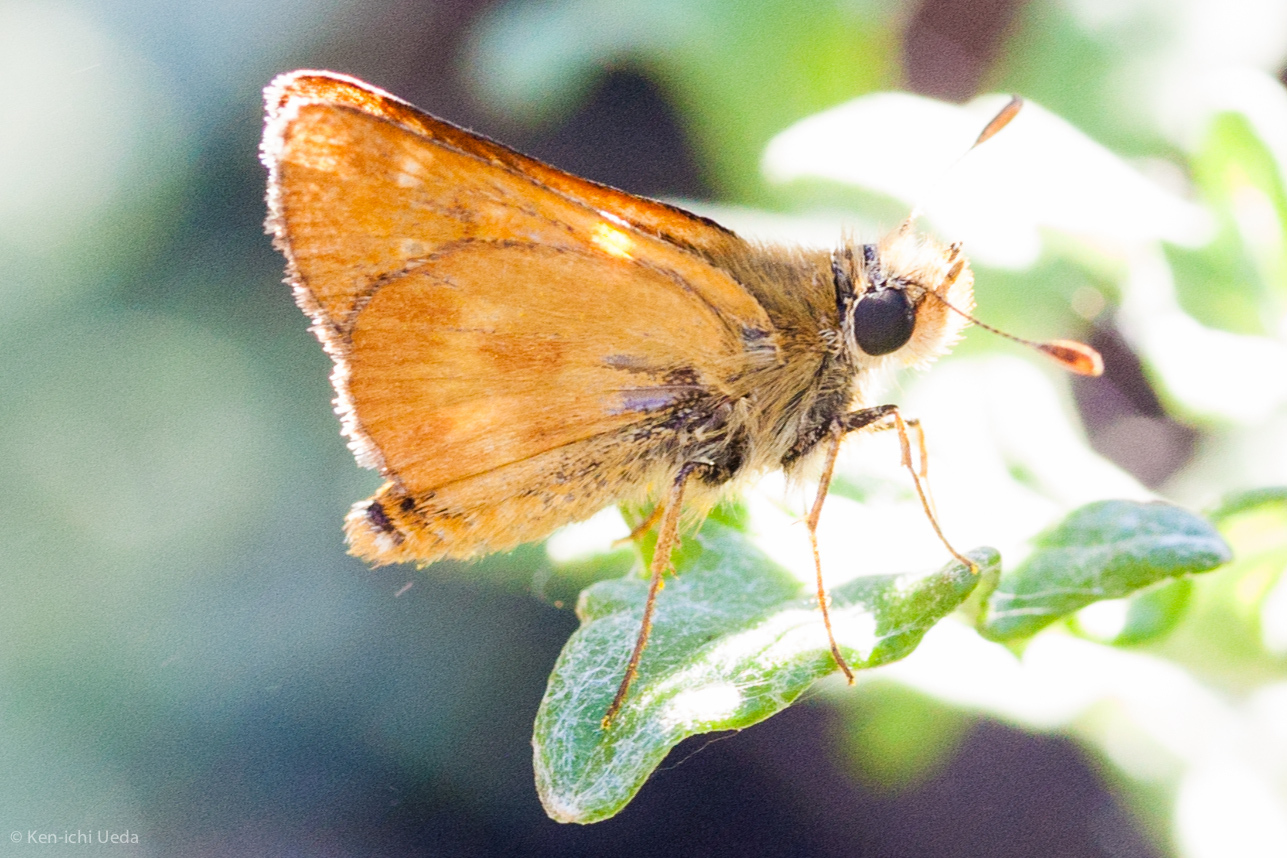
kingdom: Animalia
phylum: Arthropoda
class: Insecta
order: Lepidoptera
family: Hesperiidae
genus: Ochlodes
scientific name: Ochlodes agricola
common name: Rural skipper
